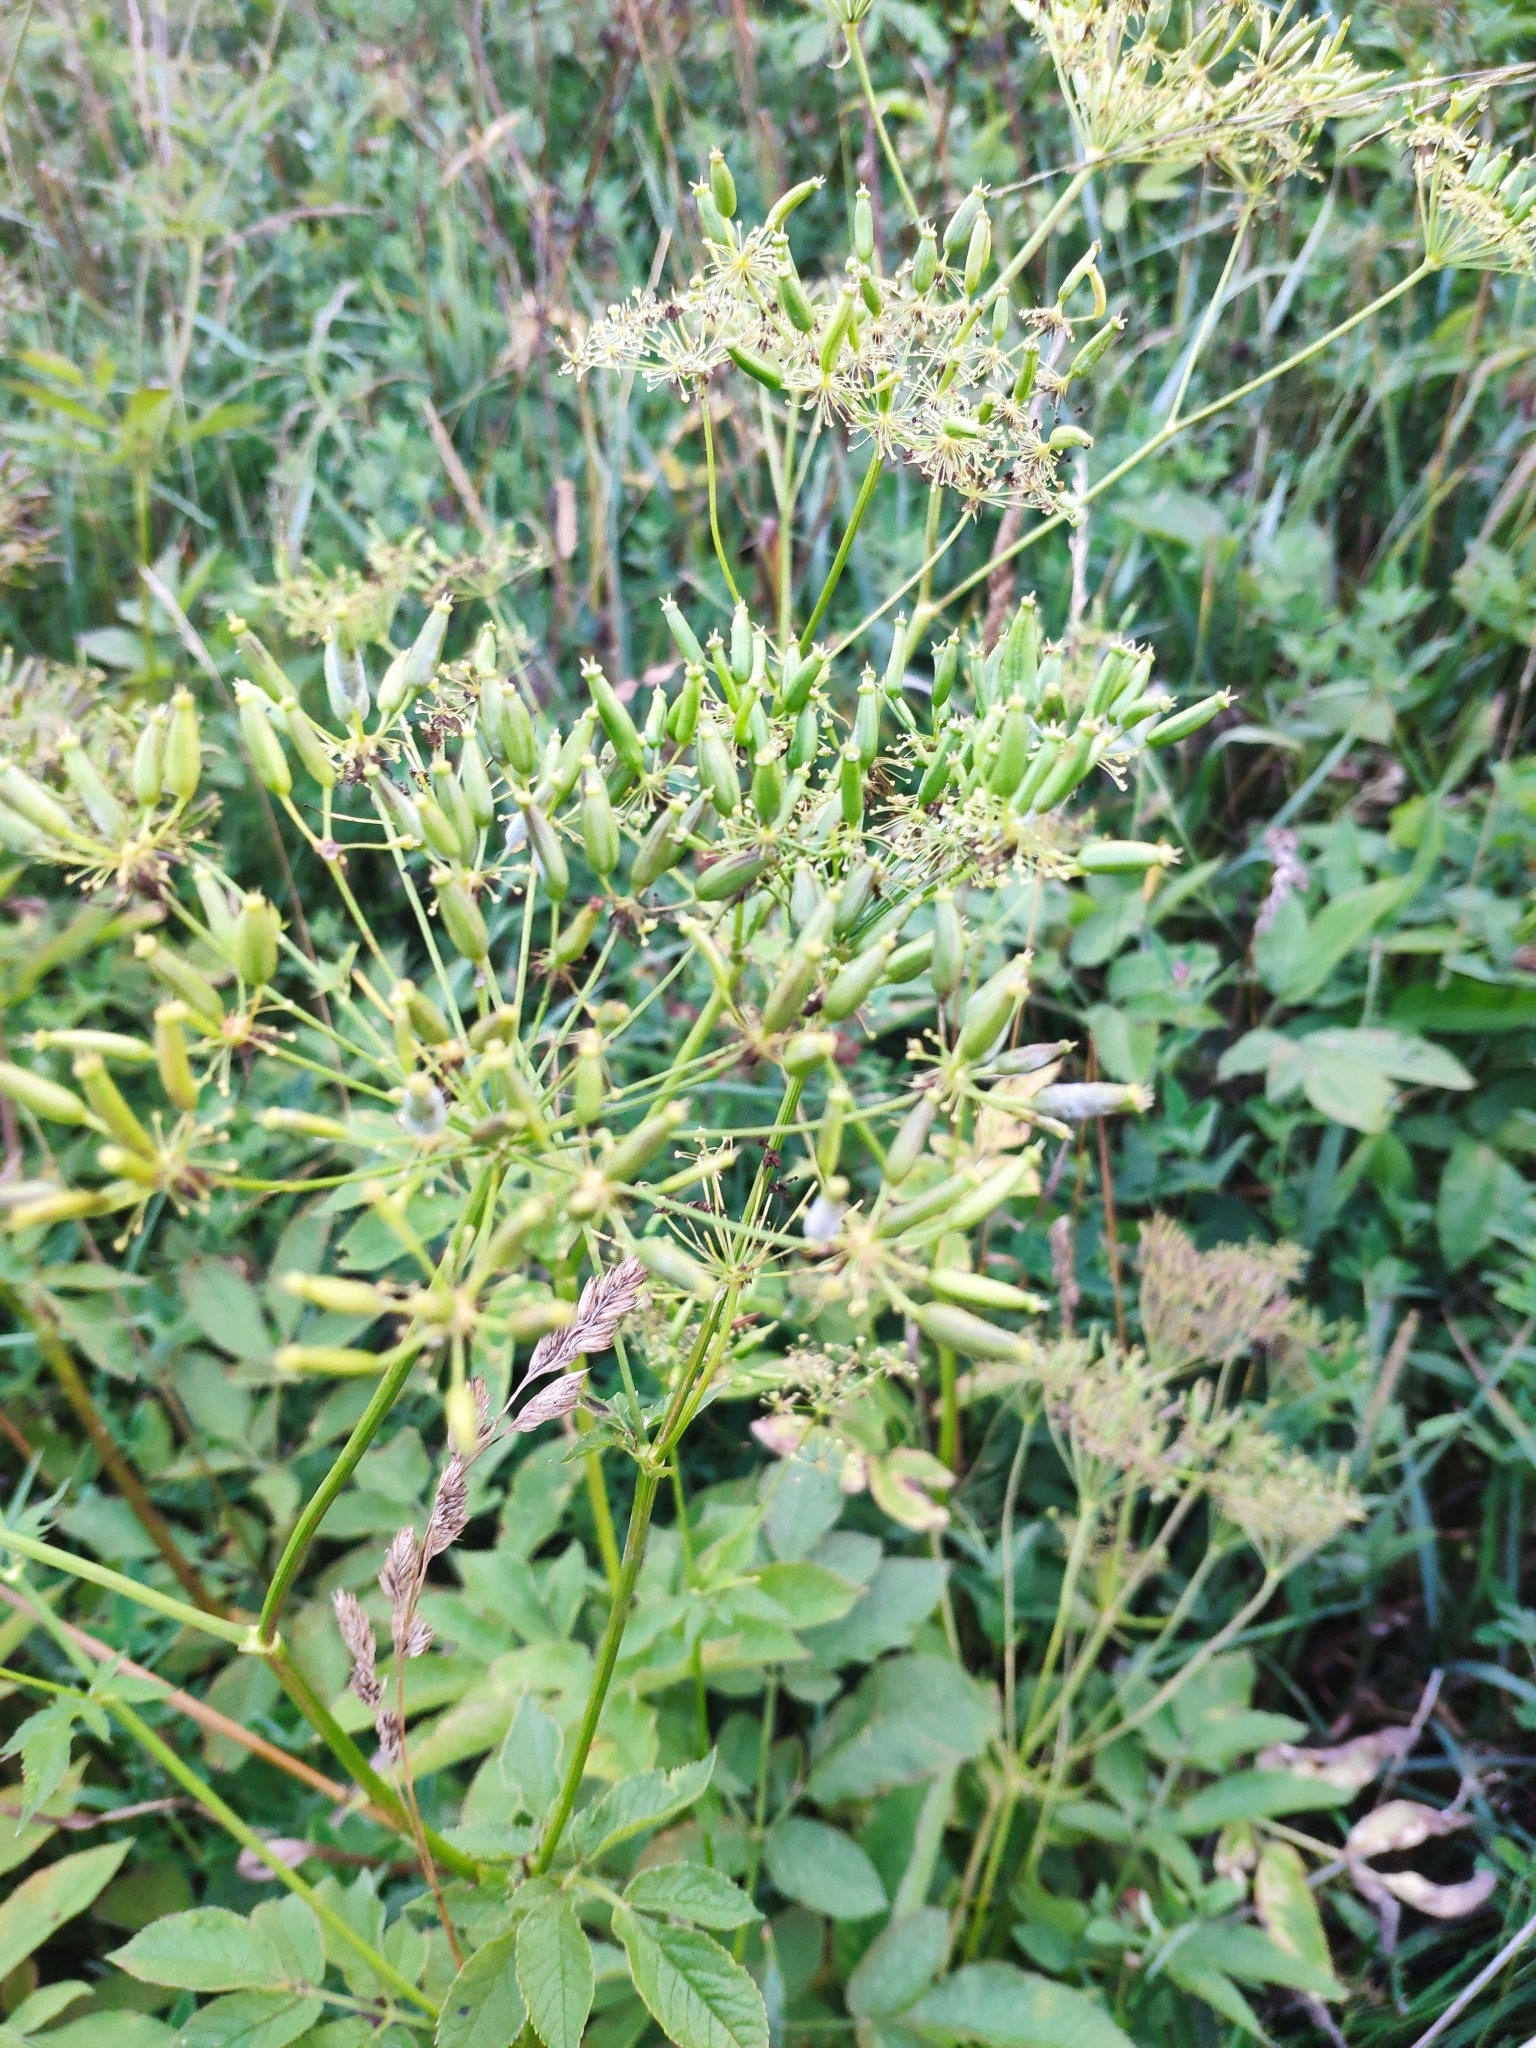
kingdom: Plantae
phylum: Tracheophyta
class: Magnoliopsida
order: Apiales
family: Apiaceae
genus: Chaerophyllum
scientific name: Chaerophyllum aromaticum
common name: Broadleaf chervil
